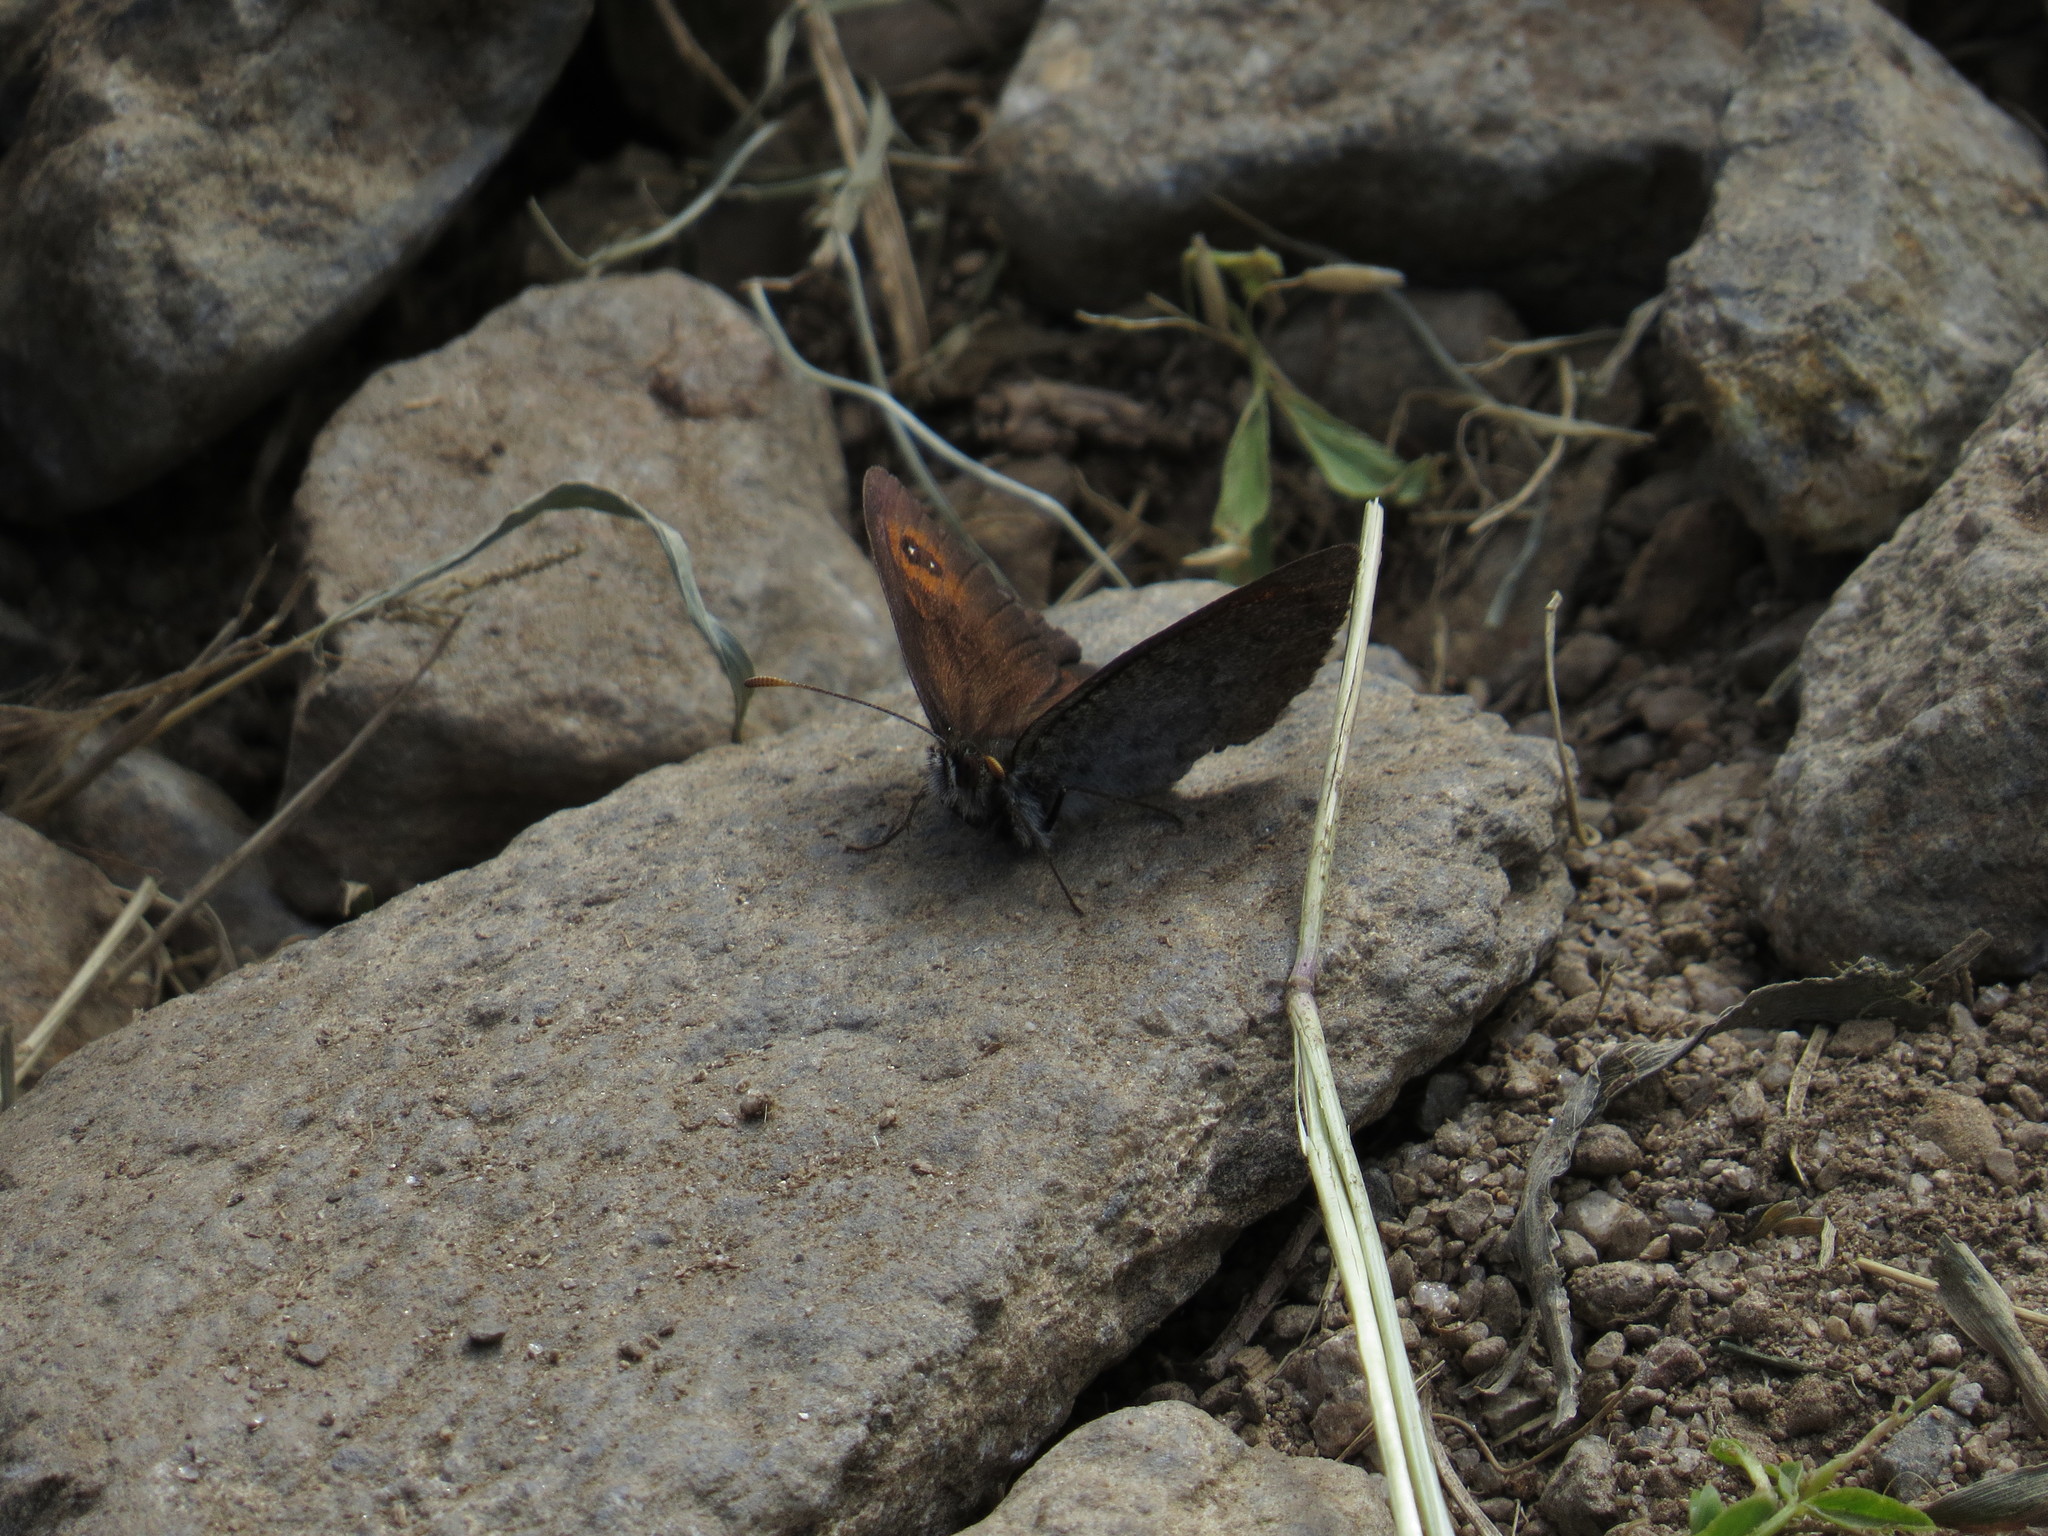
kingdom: Animalia
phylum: Arthropoda
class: Insecta
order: Lepidoptera
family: Nymphalidae
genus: Erebia
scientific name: Erebia cassioides
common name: Common brassy ringlet
